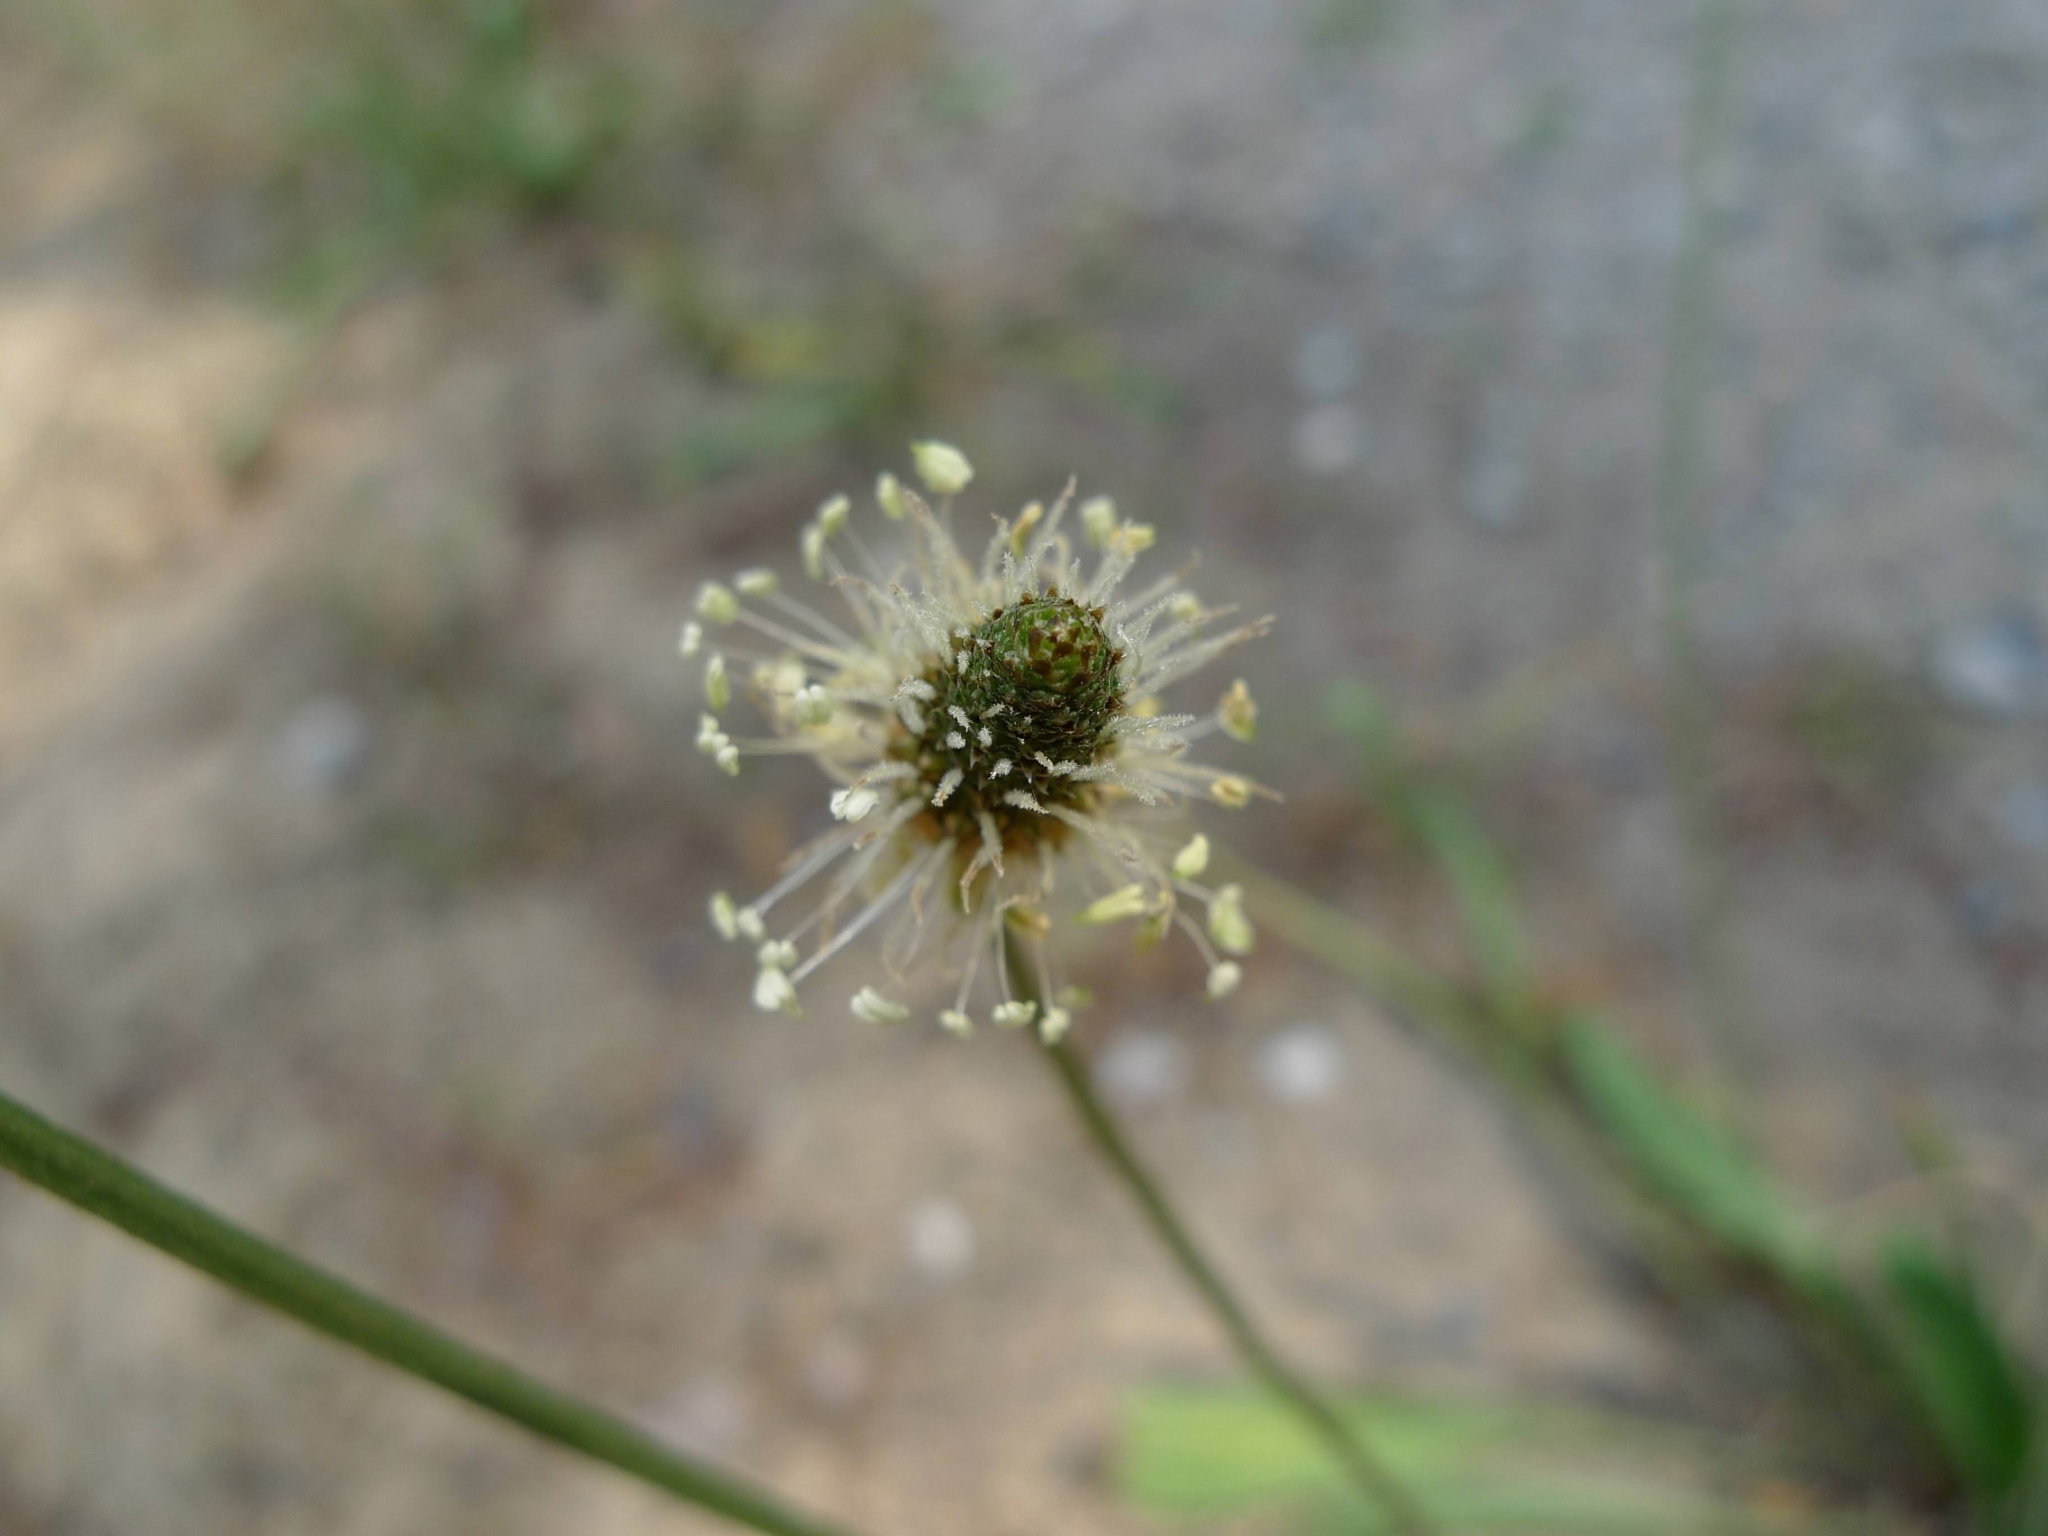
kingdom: Plantae
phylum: Tracheophyta
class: Magnoliopsida
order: Lamiales
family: Plantaginaceae
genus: Plantago
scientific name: Plantago lanceolata
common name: Ribwort plantain
